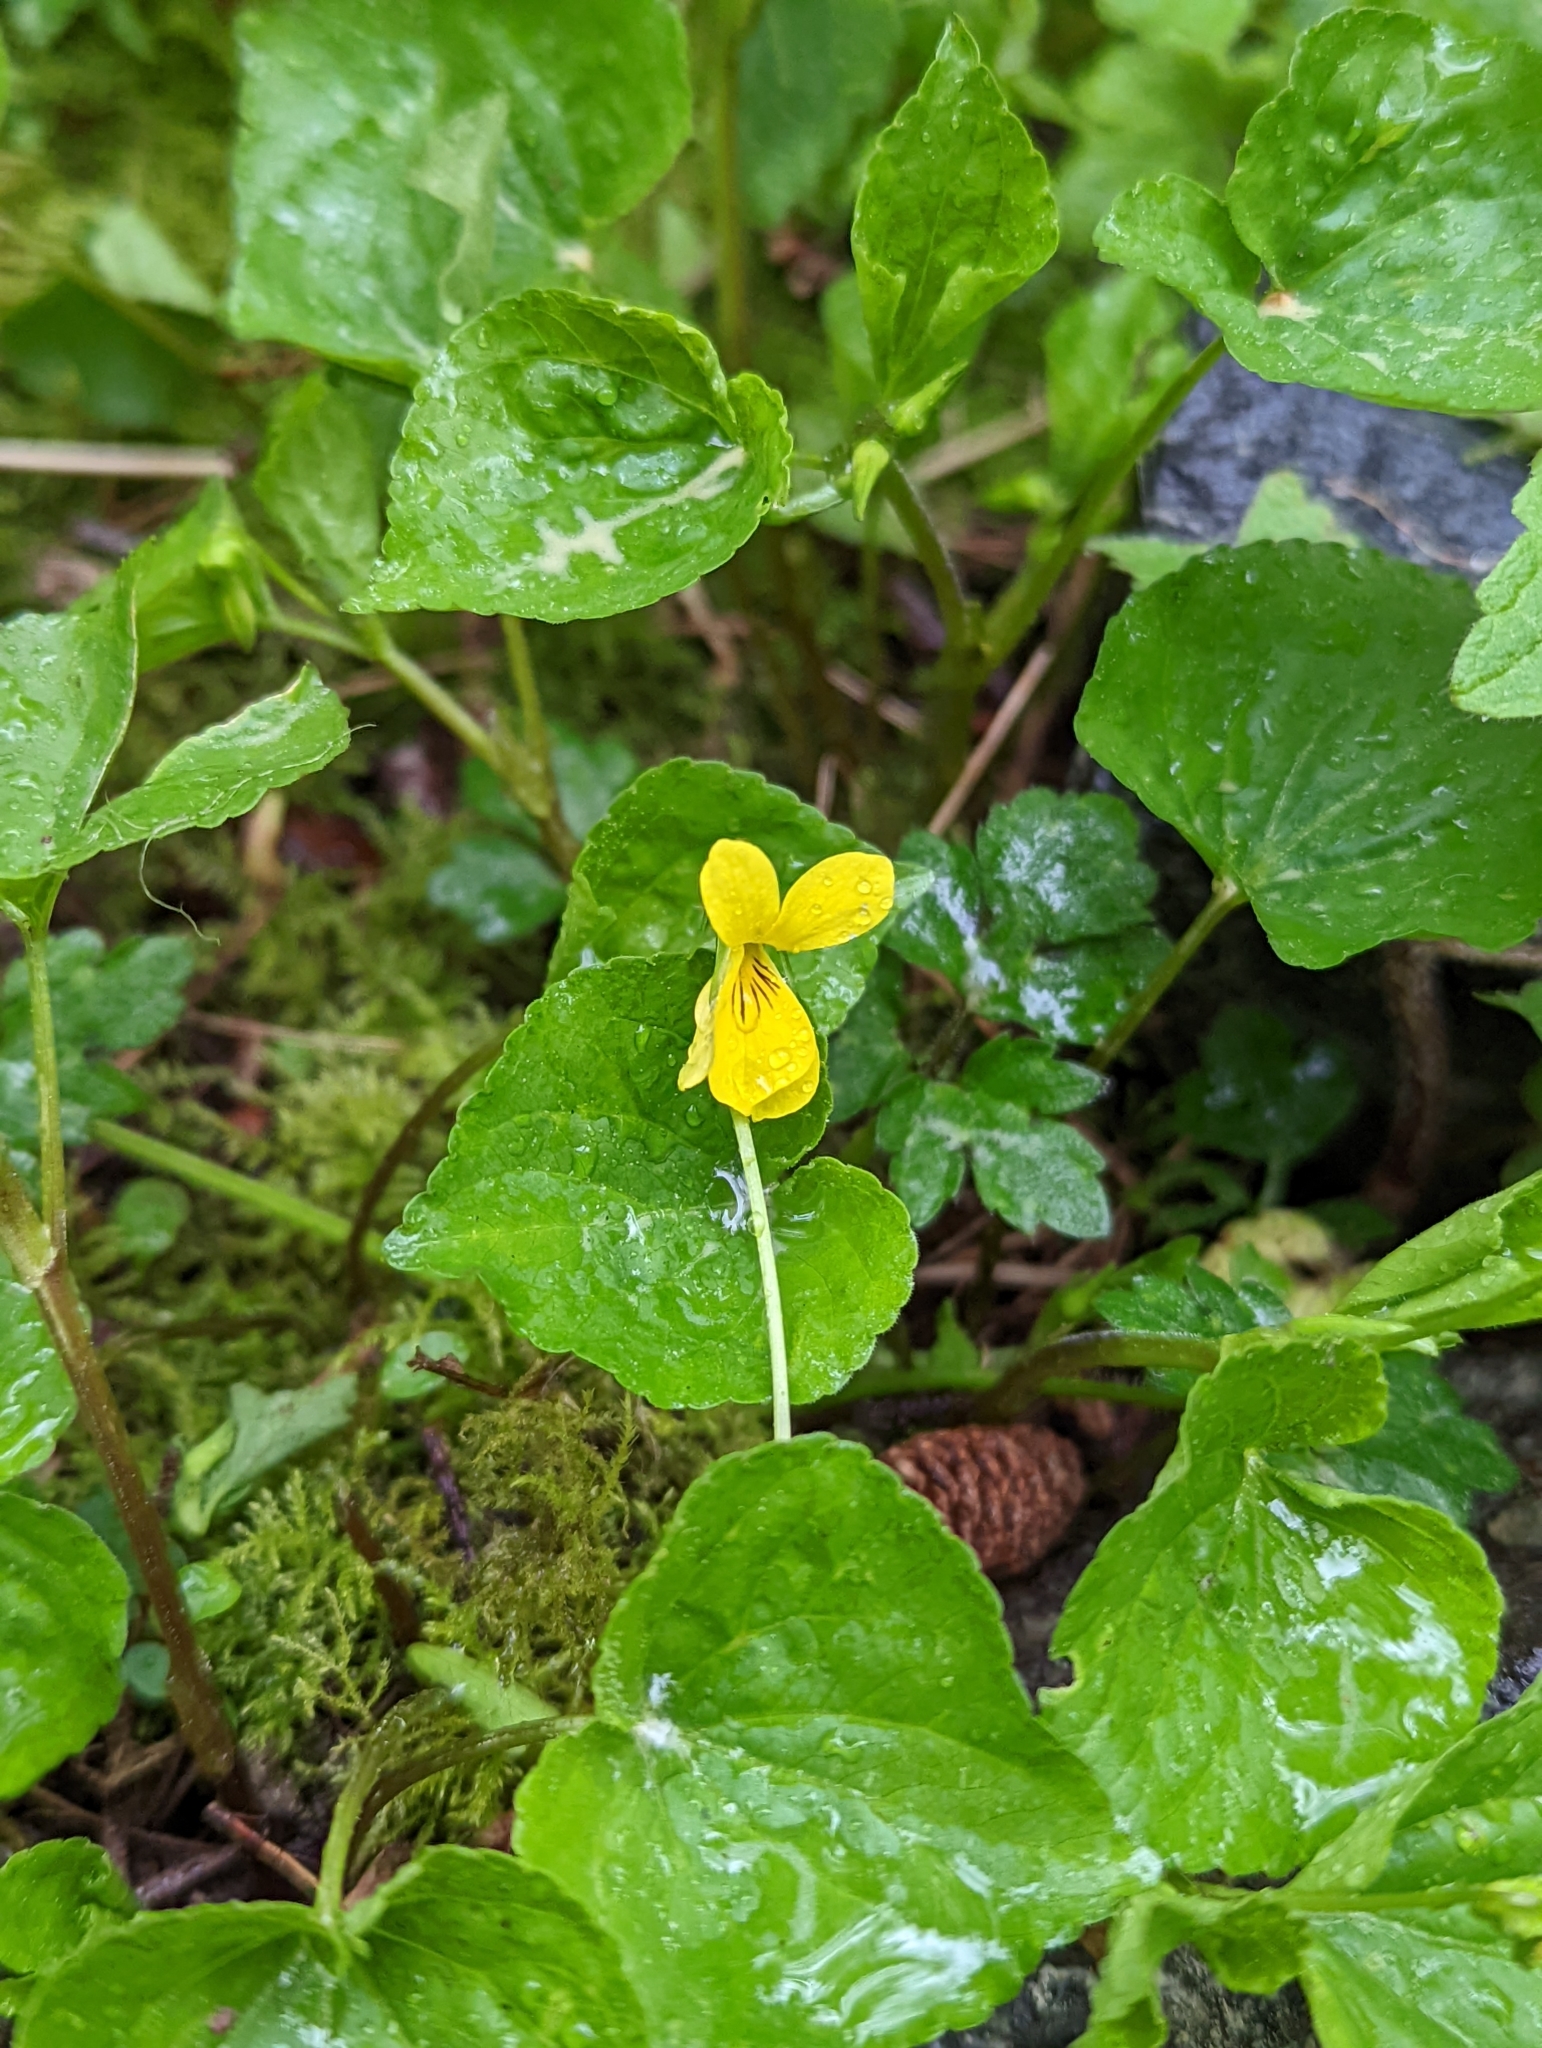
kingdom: Plantae
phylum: Tracheophyta
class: Magnoliopsida
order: Malpighiales
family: Violaceae
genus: Viola
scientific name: Viola glabella
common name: Stream violet
